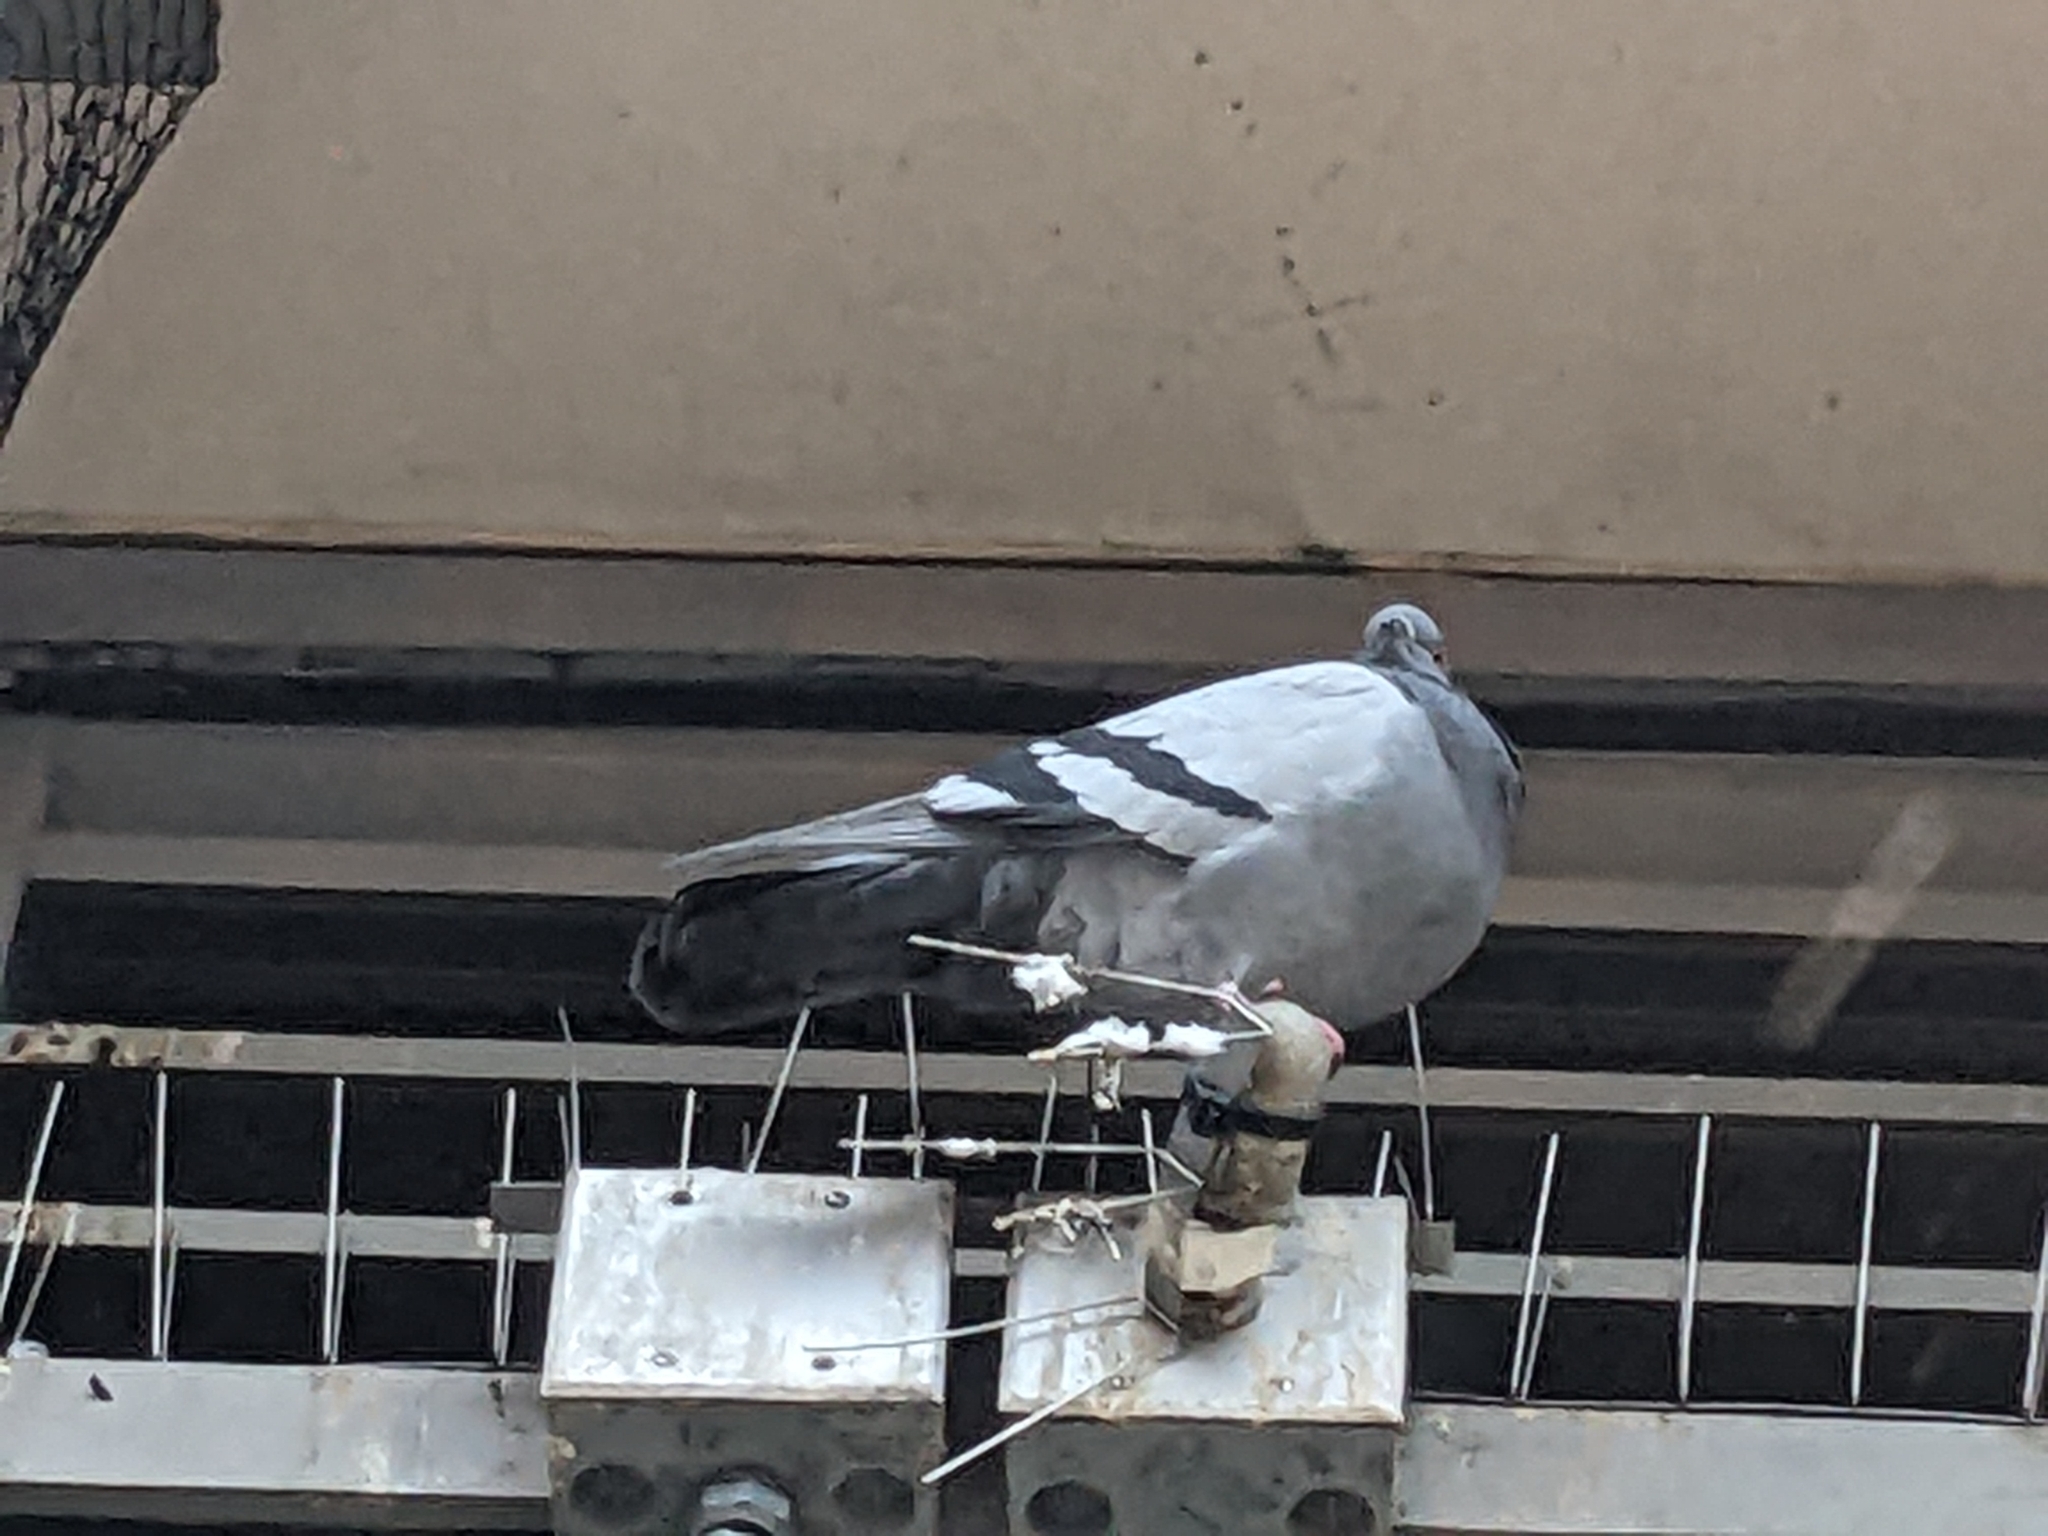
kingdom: Animalia
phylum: Chordata
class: Aves
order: Columbiformes
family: Columbidae
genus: Columba
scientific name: Columba livia
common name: Rock pigeon
